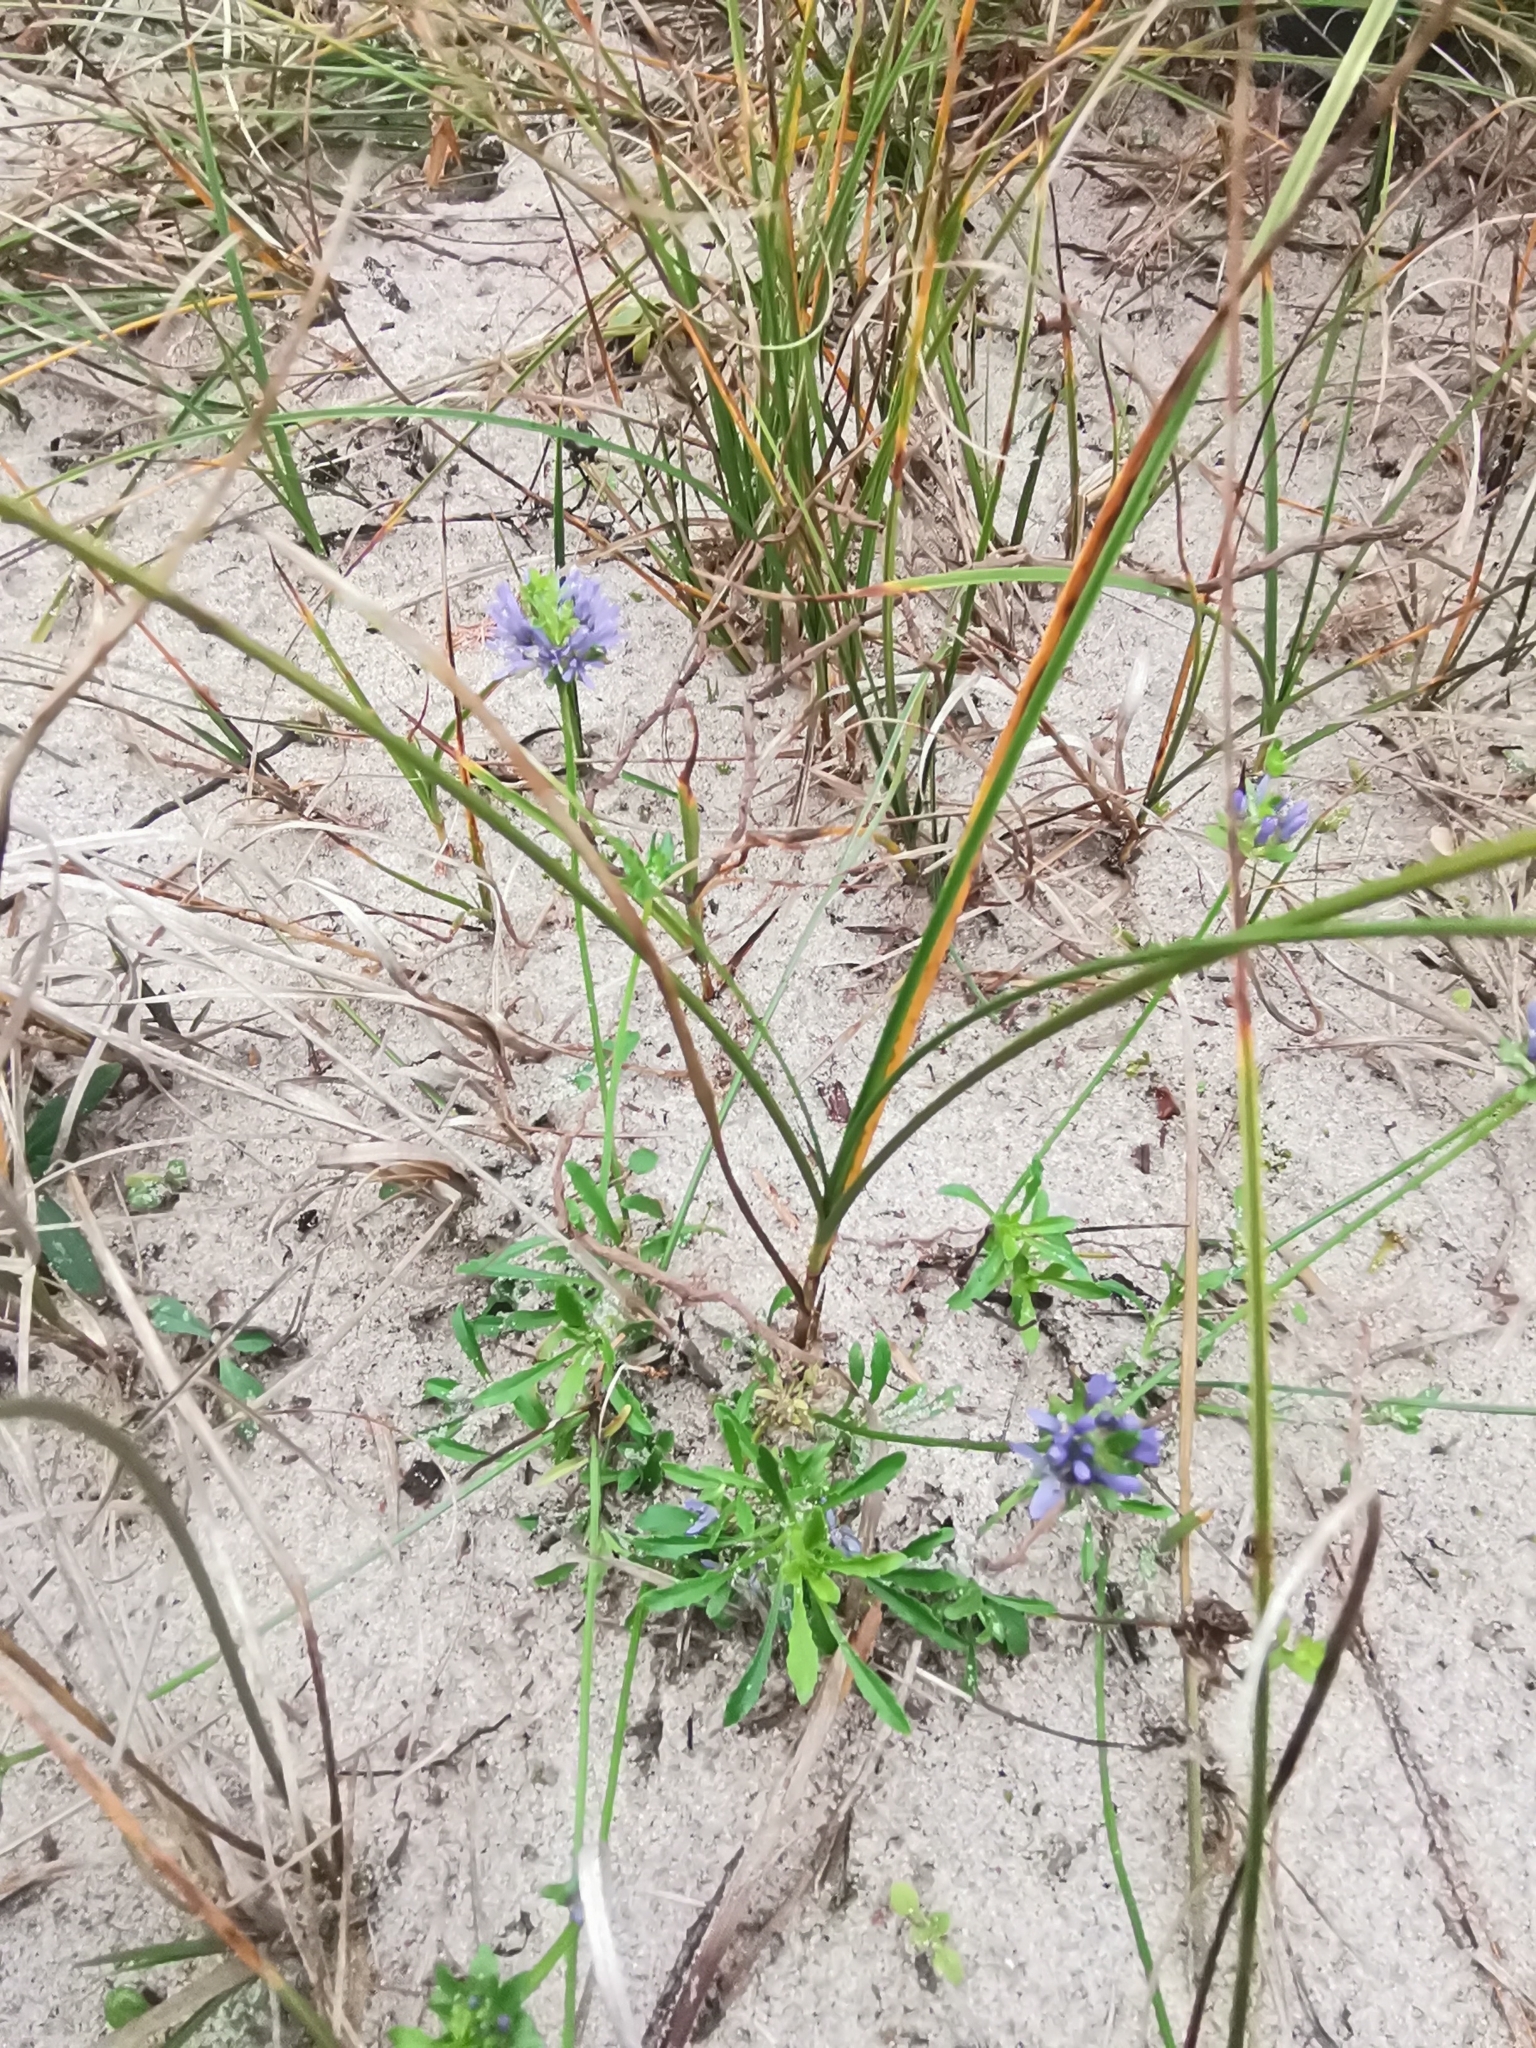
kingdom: Plantae
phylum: Tracheophyta
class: Magnoliopsida
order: Asterales
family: Campanulaceae
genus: Jasione
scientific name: Jasione montana
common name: Sheep's-bit
